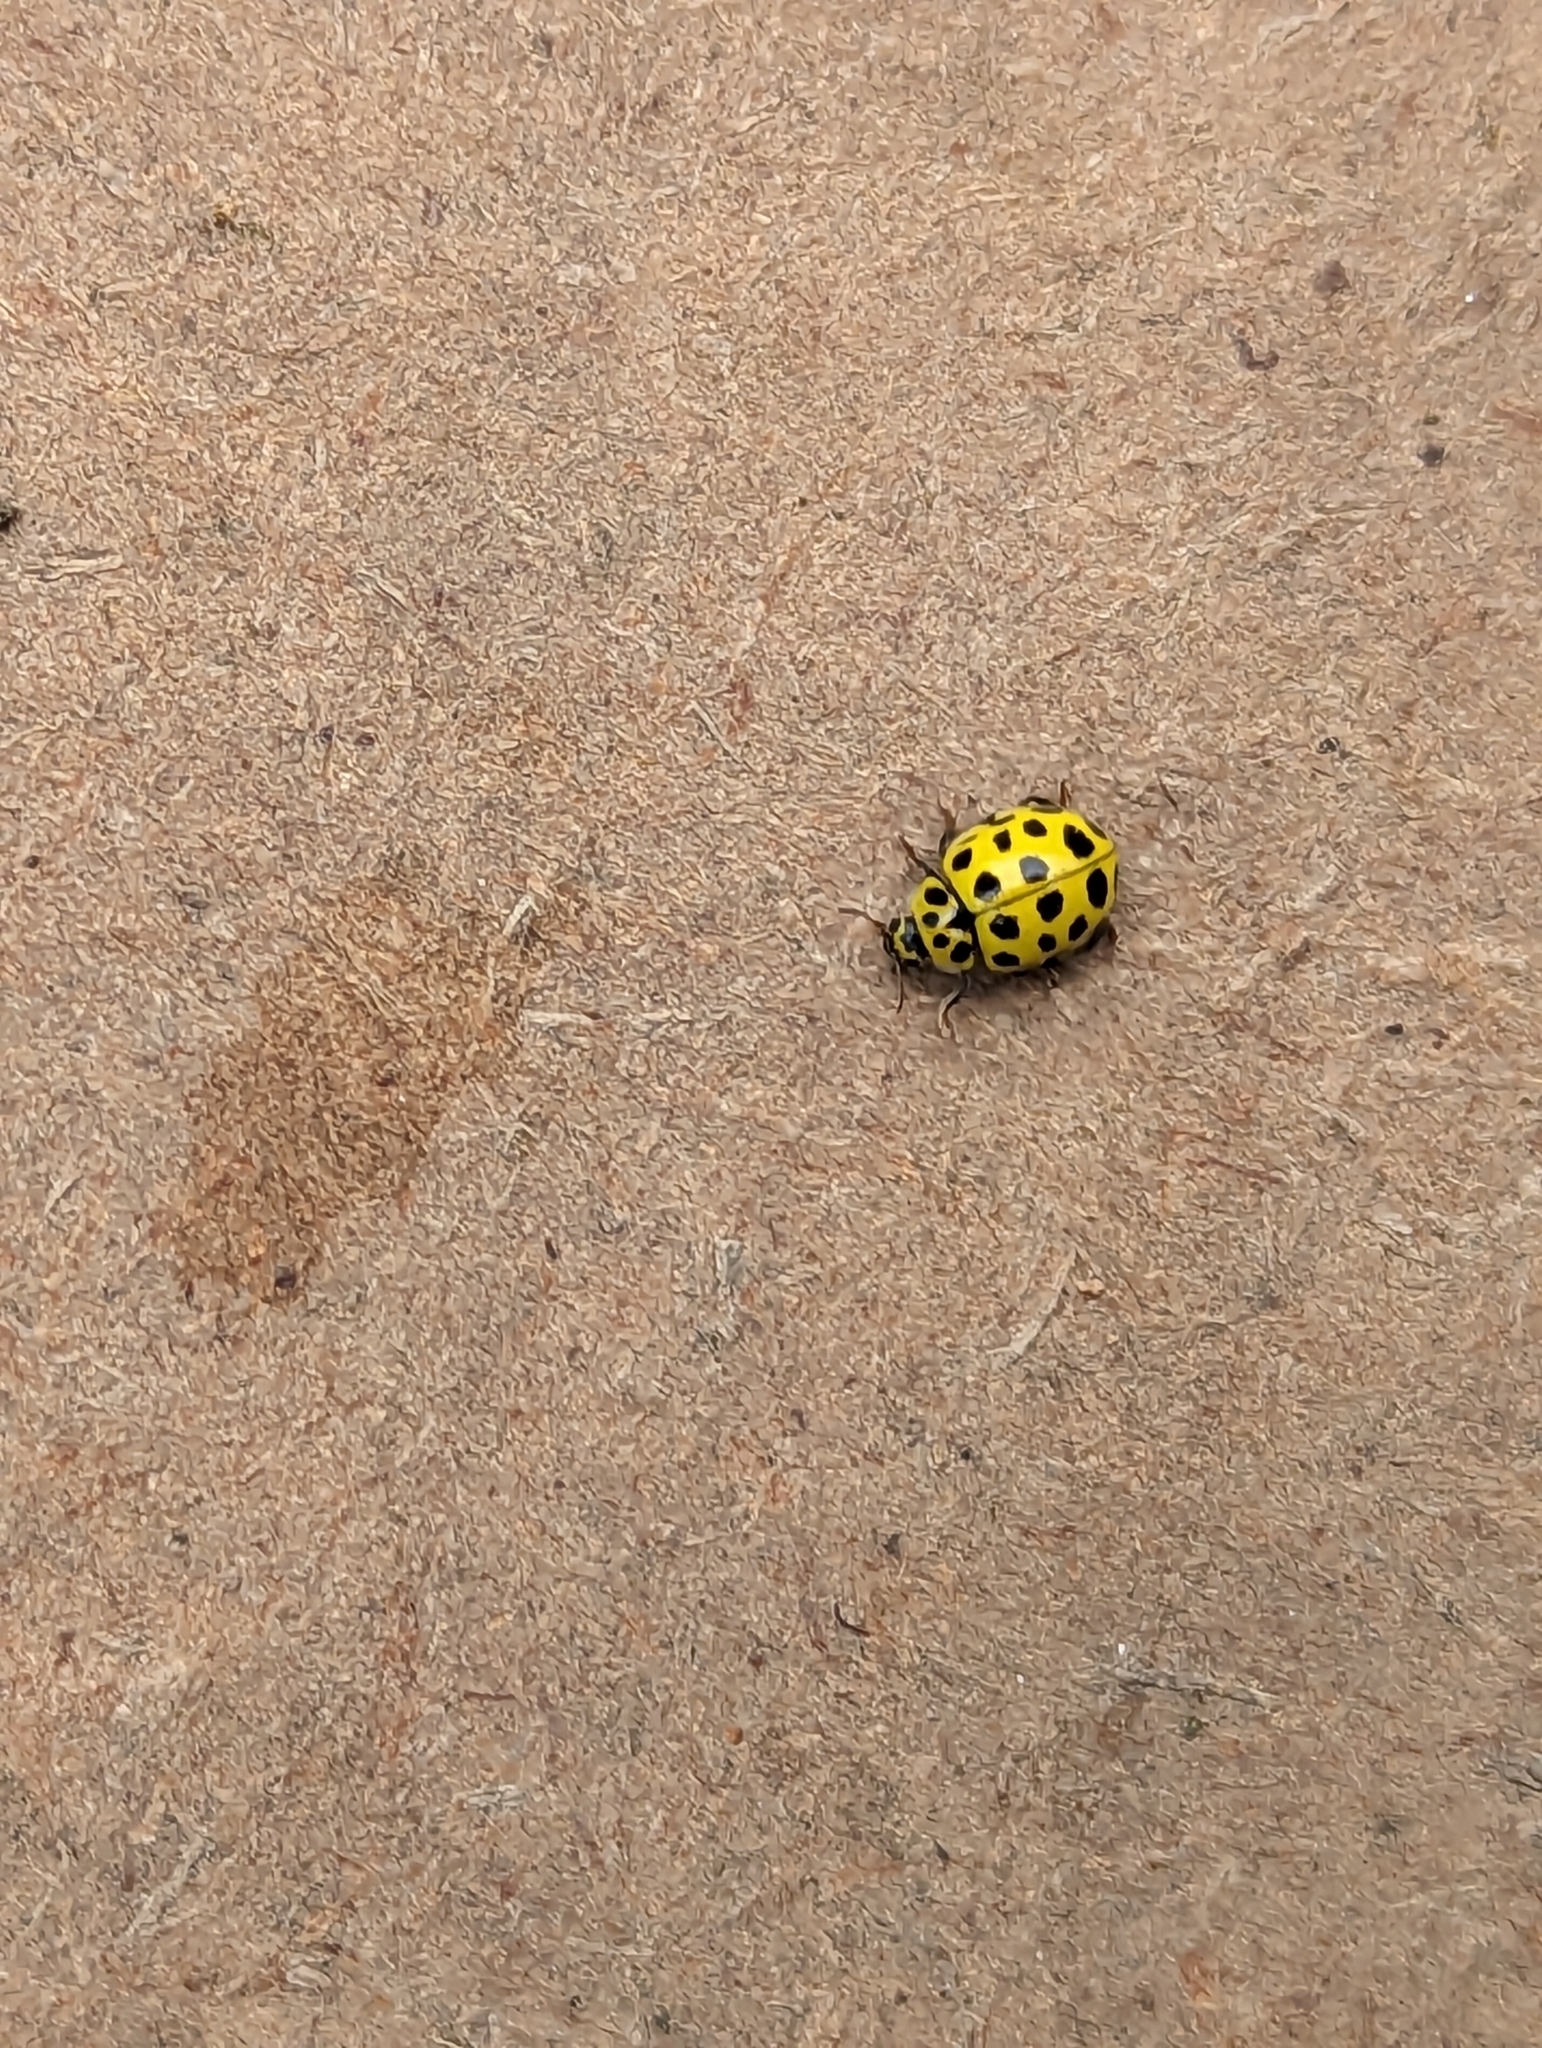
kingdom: Animalia
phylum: Arthropoda
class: Insecta
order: Coleoptera
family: Coccinellidae
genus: Psyllobora
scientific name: Psyllobora vigintiduopunctata
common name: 22-spot ladybird
